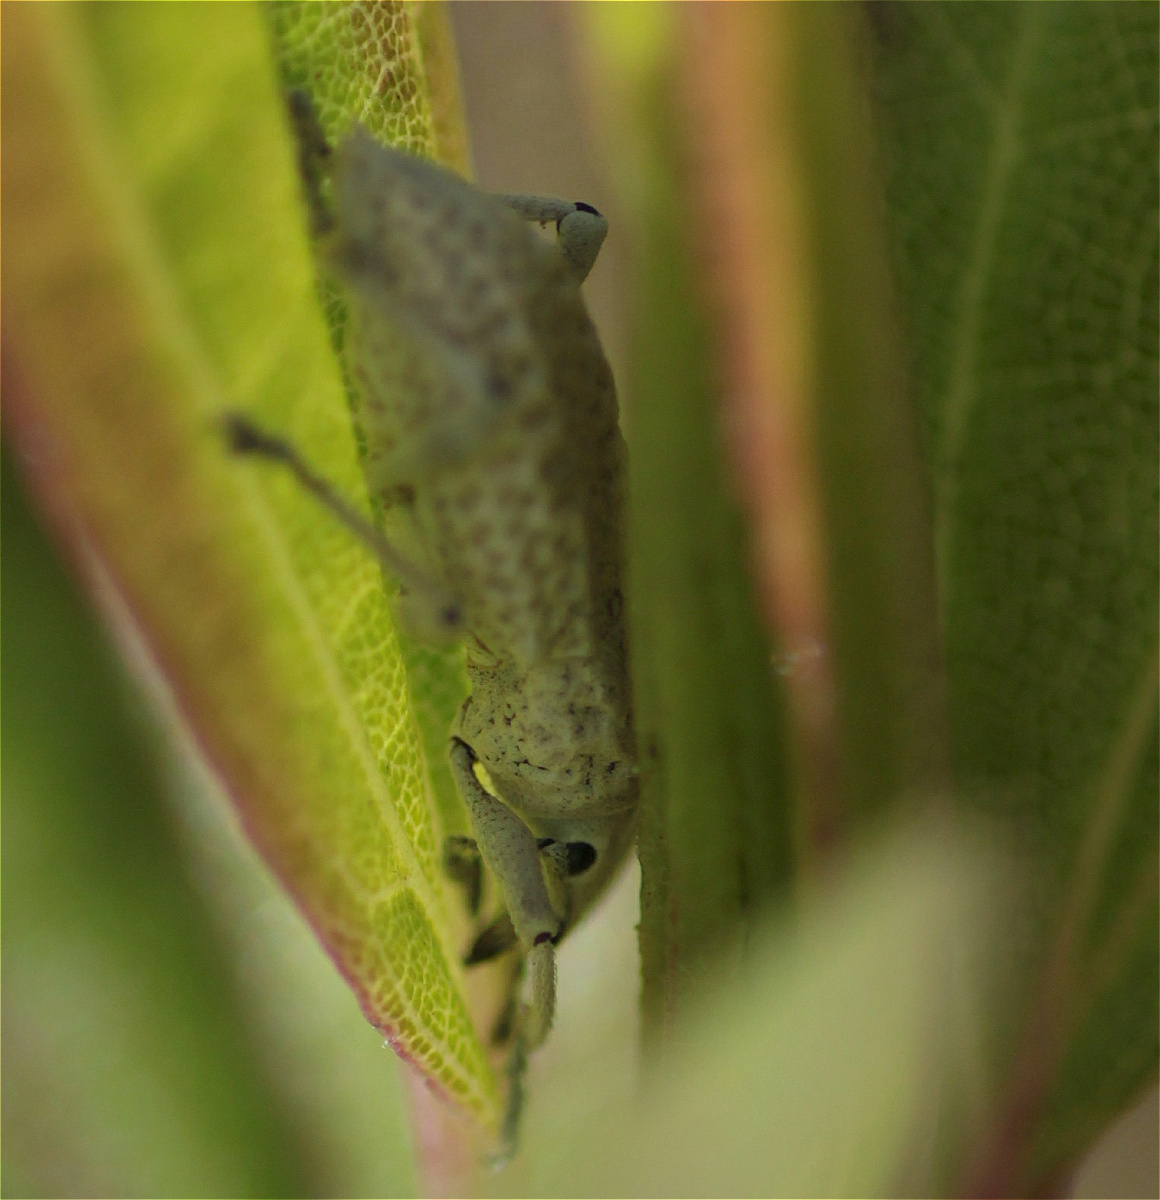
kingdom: Animalia
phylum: Arthropoda
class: Insecta
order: Coleoptera
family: Curculionidae
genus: Compsus
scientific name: Compsus canescens
